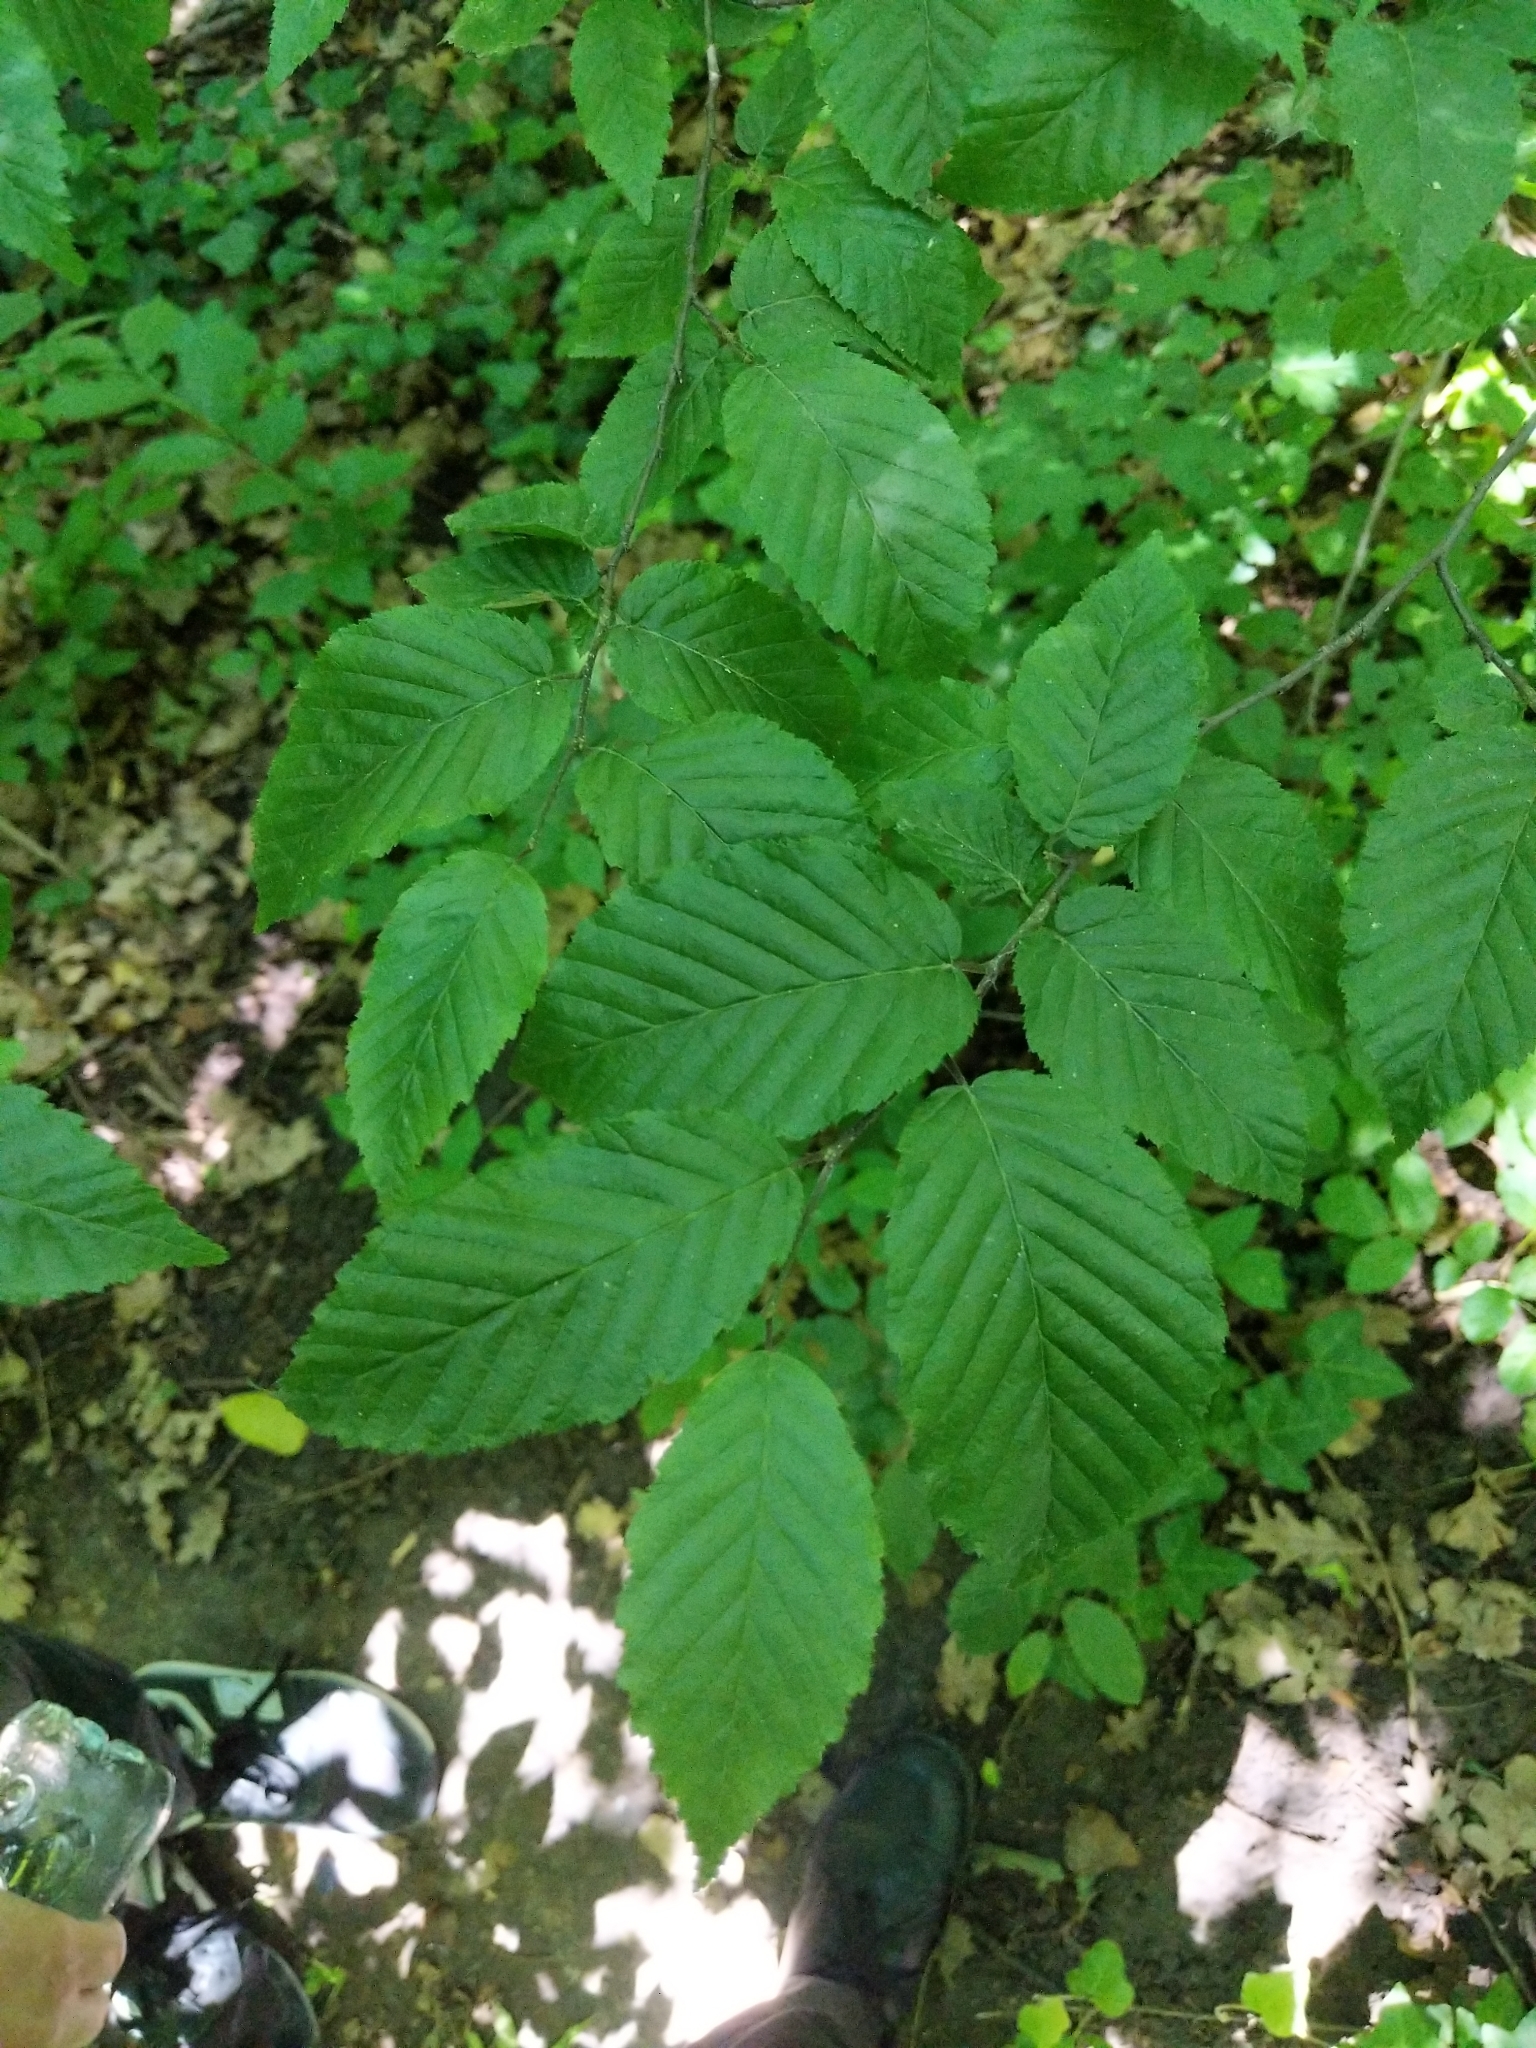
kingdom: Plantae
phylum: Tracheophyta
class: Magnoliopsida
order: Fagales
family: Betulaceae
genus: Carpinus
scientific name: Carpinus betulus
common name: Hornbeam
